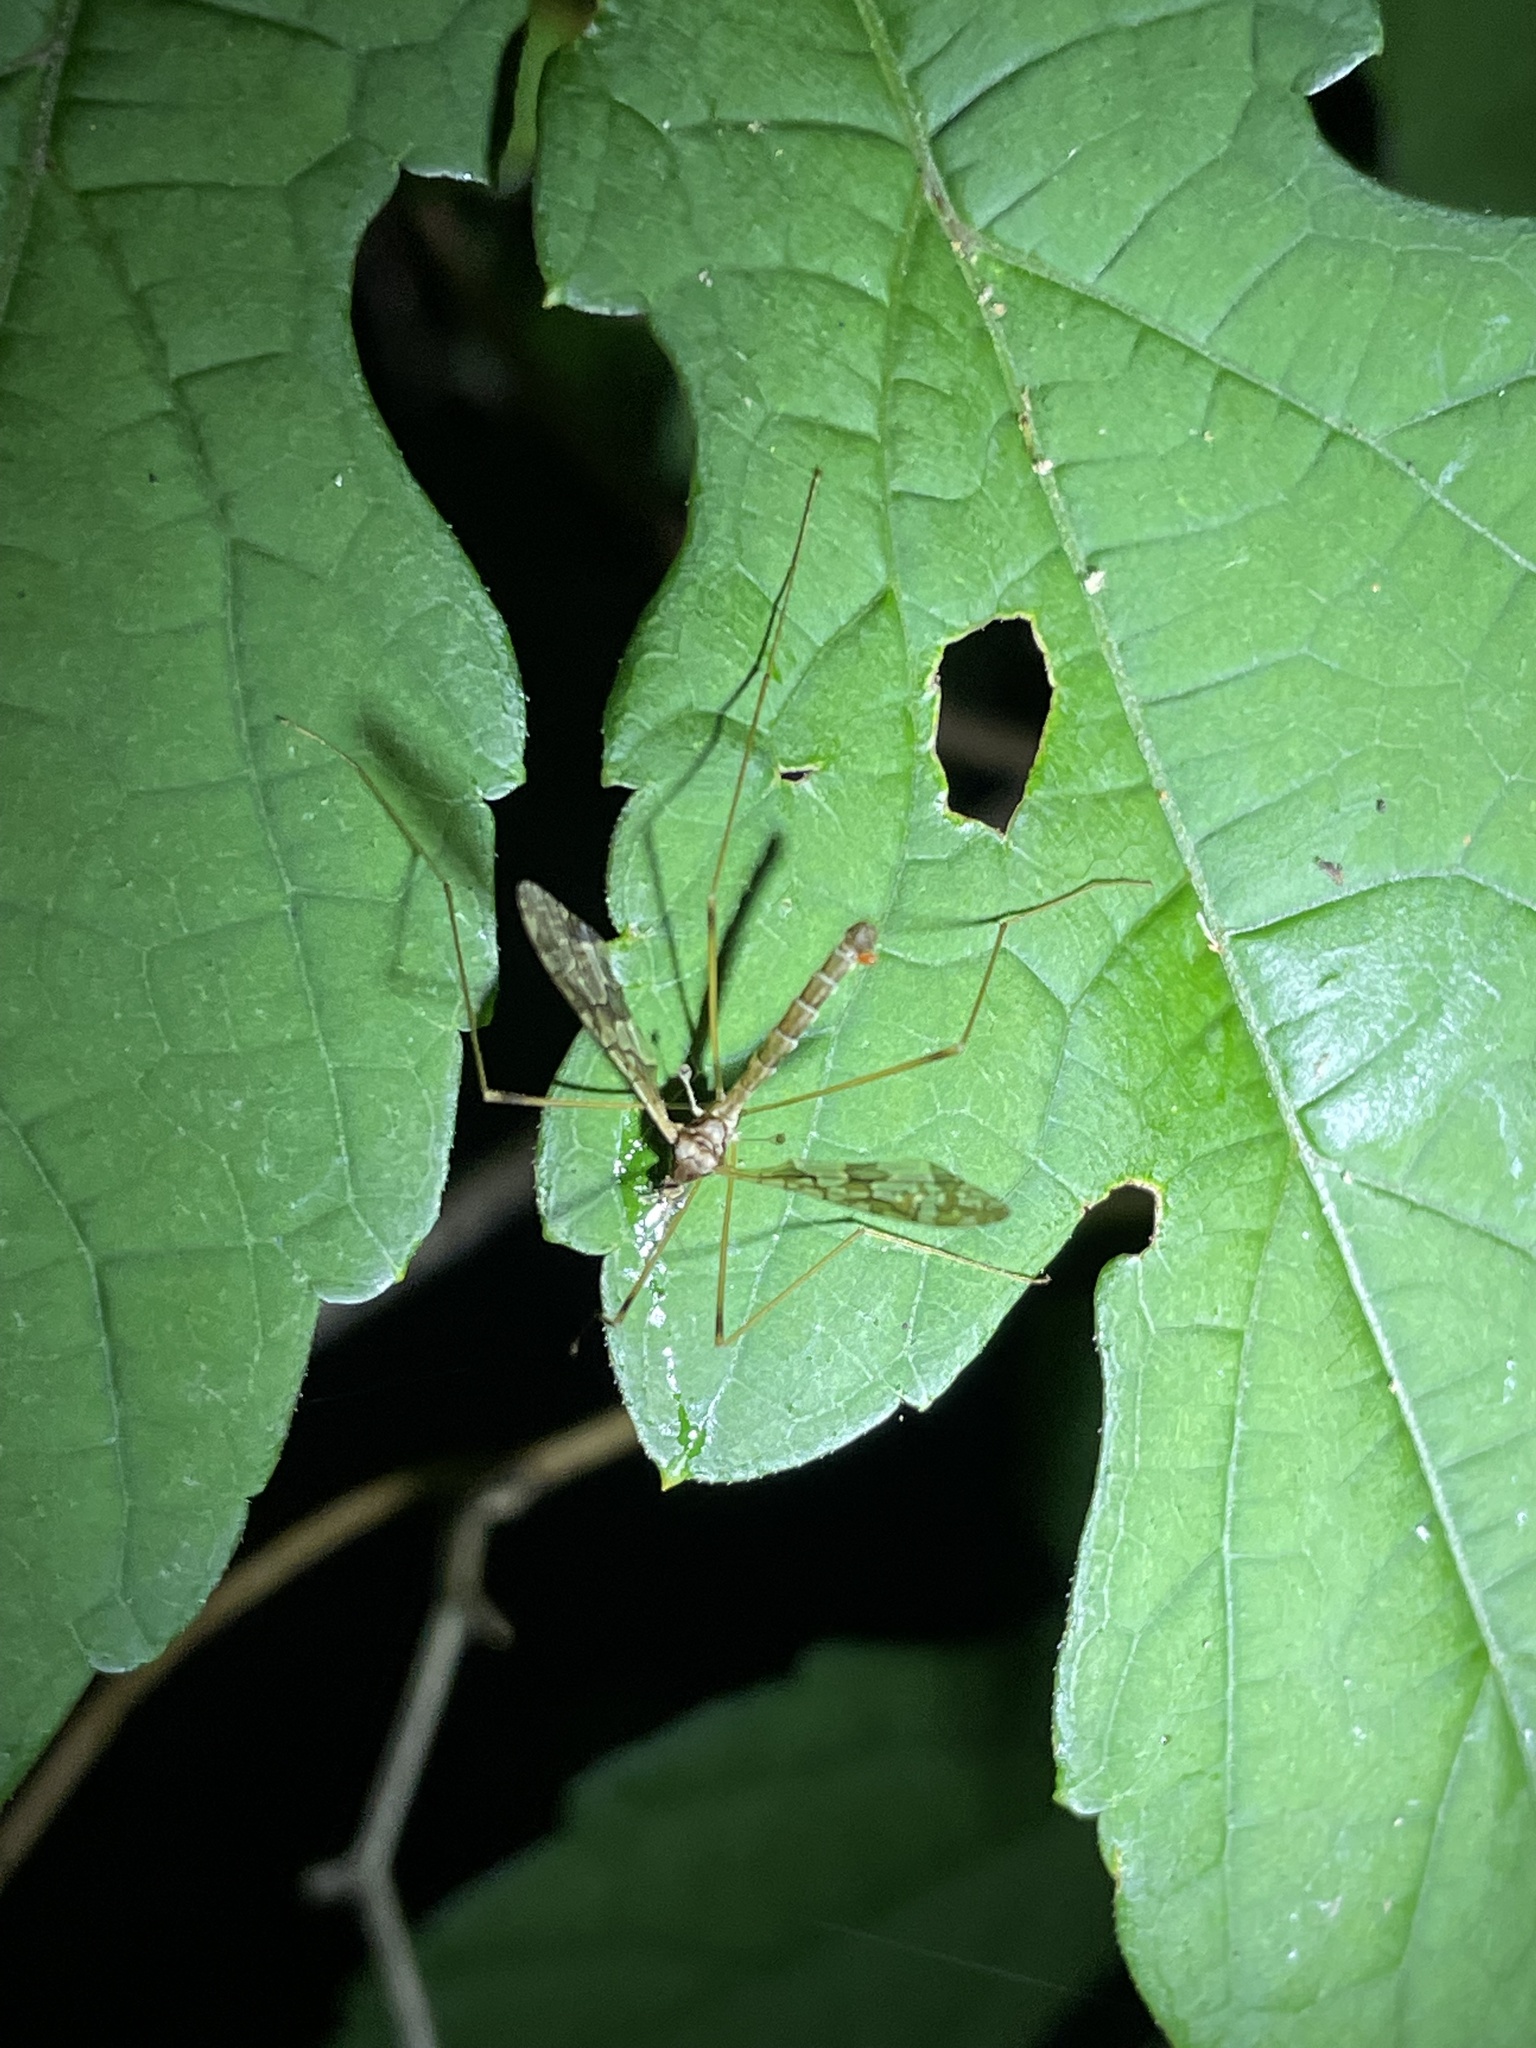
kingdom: Animalia
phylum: Arthropoda
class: Insecta
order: Diptera
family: Limoniidae
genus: Epiphragma
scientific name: Epiphragma solatrix
